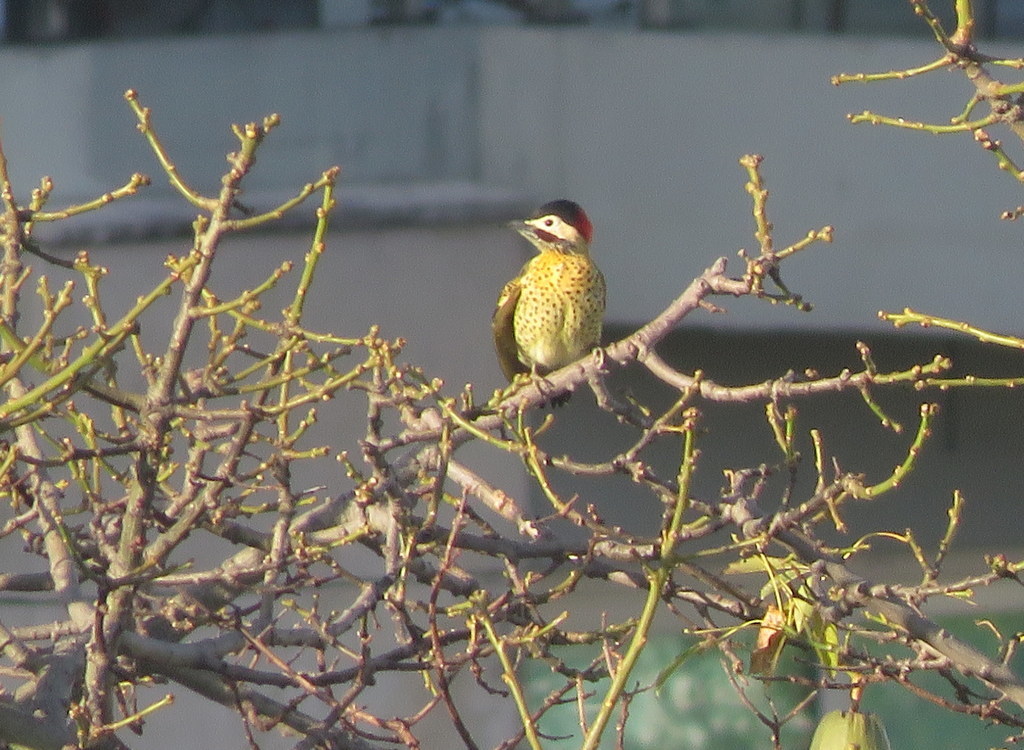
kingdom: Animalia
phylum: Chordata
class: Aves
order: Piciformes
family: Picidae
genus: Colaptes
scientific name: Colaptes melanochloros
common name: Green-barred woodpecker
